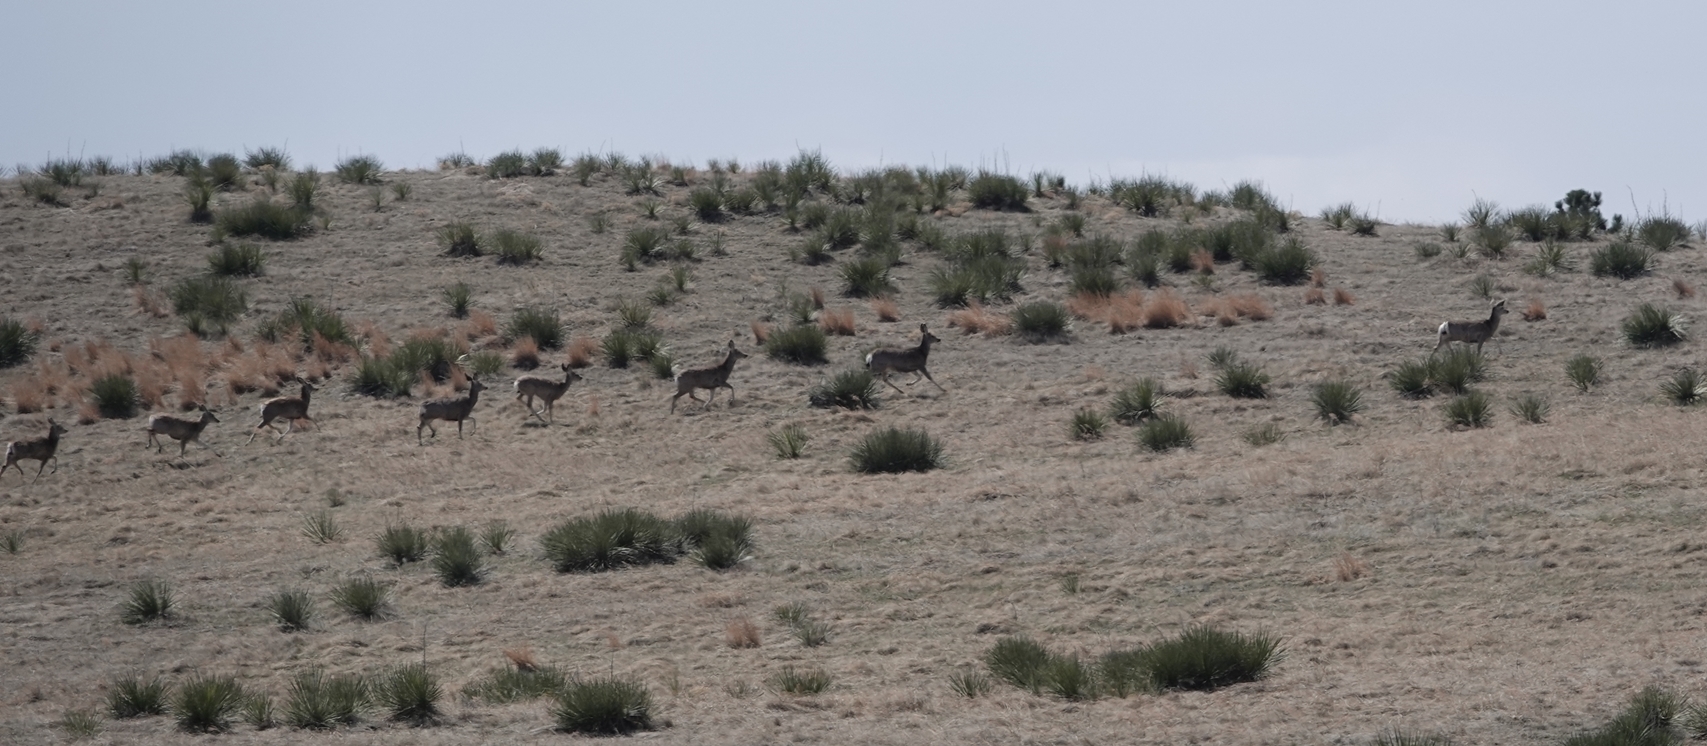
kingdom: Animalia
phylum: Chordata
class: Mammalia
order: Artiodactyla
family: Cervidae
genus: Odocoileus
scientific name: Odocoileus hemionus
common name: Mule deer
